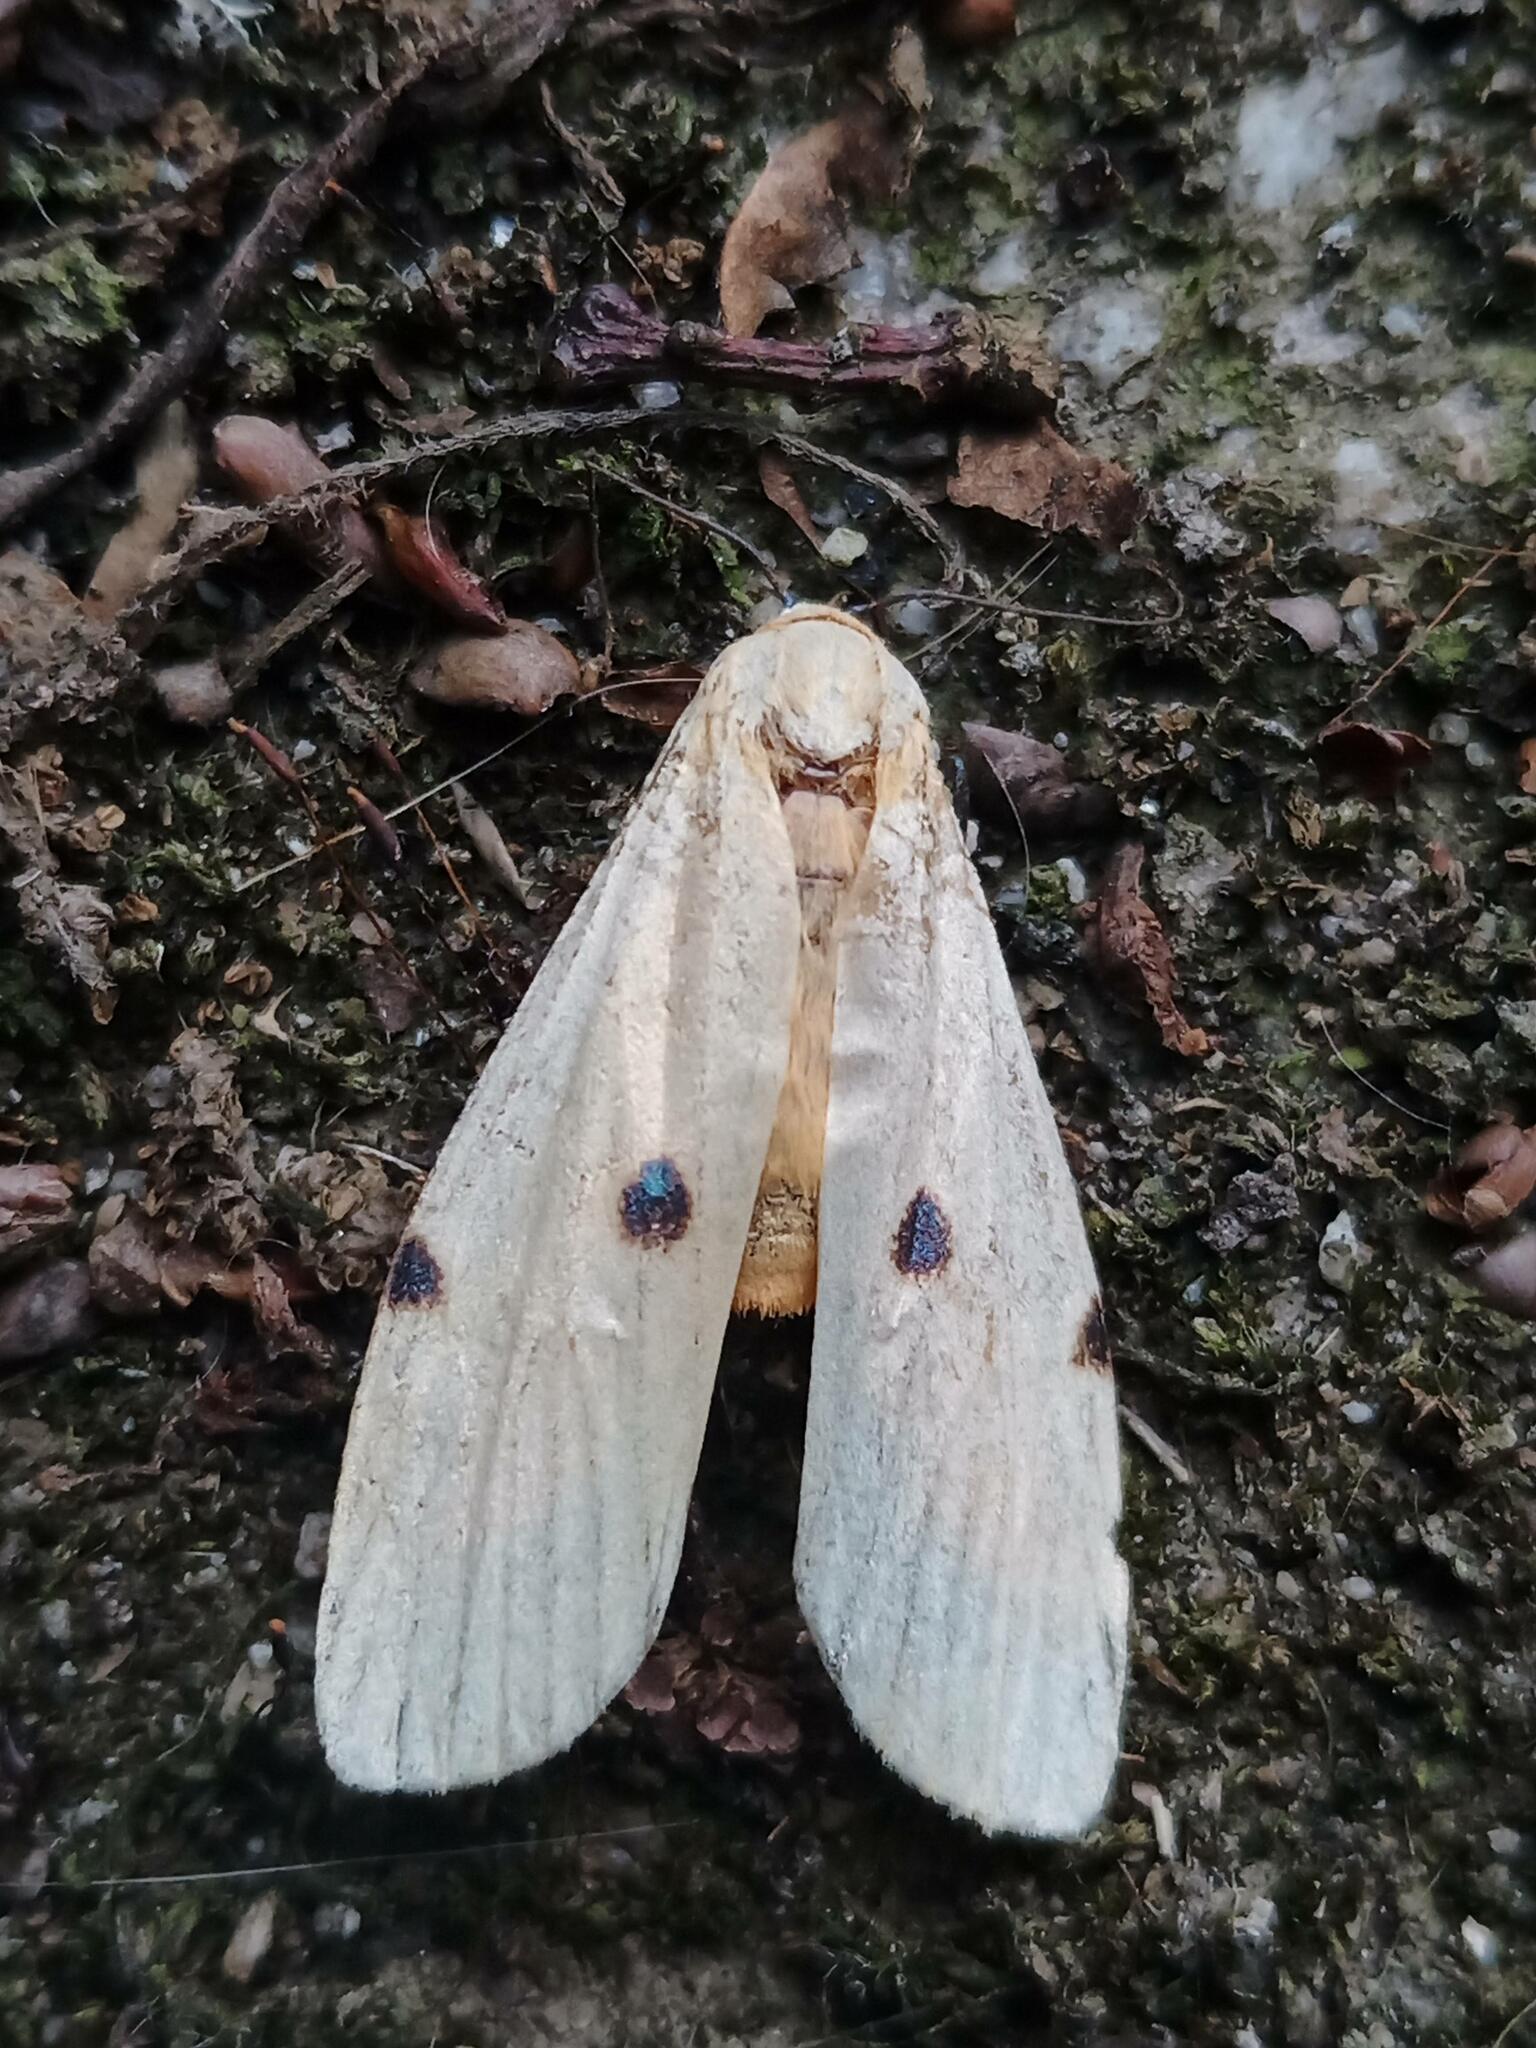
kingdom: Animalia
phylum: Arthropoda
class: Insecta
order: Lepidoptera
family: Erebidae
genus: Lithosia
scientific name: Lithosia quadra
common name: Four-spotted footman
